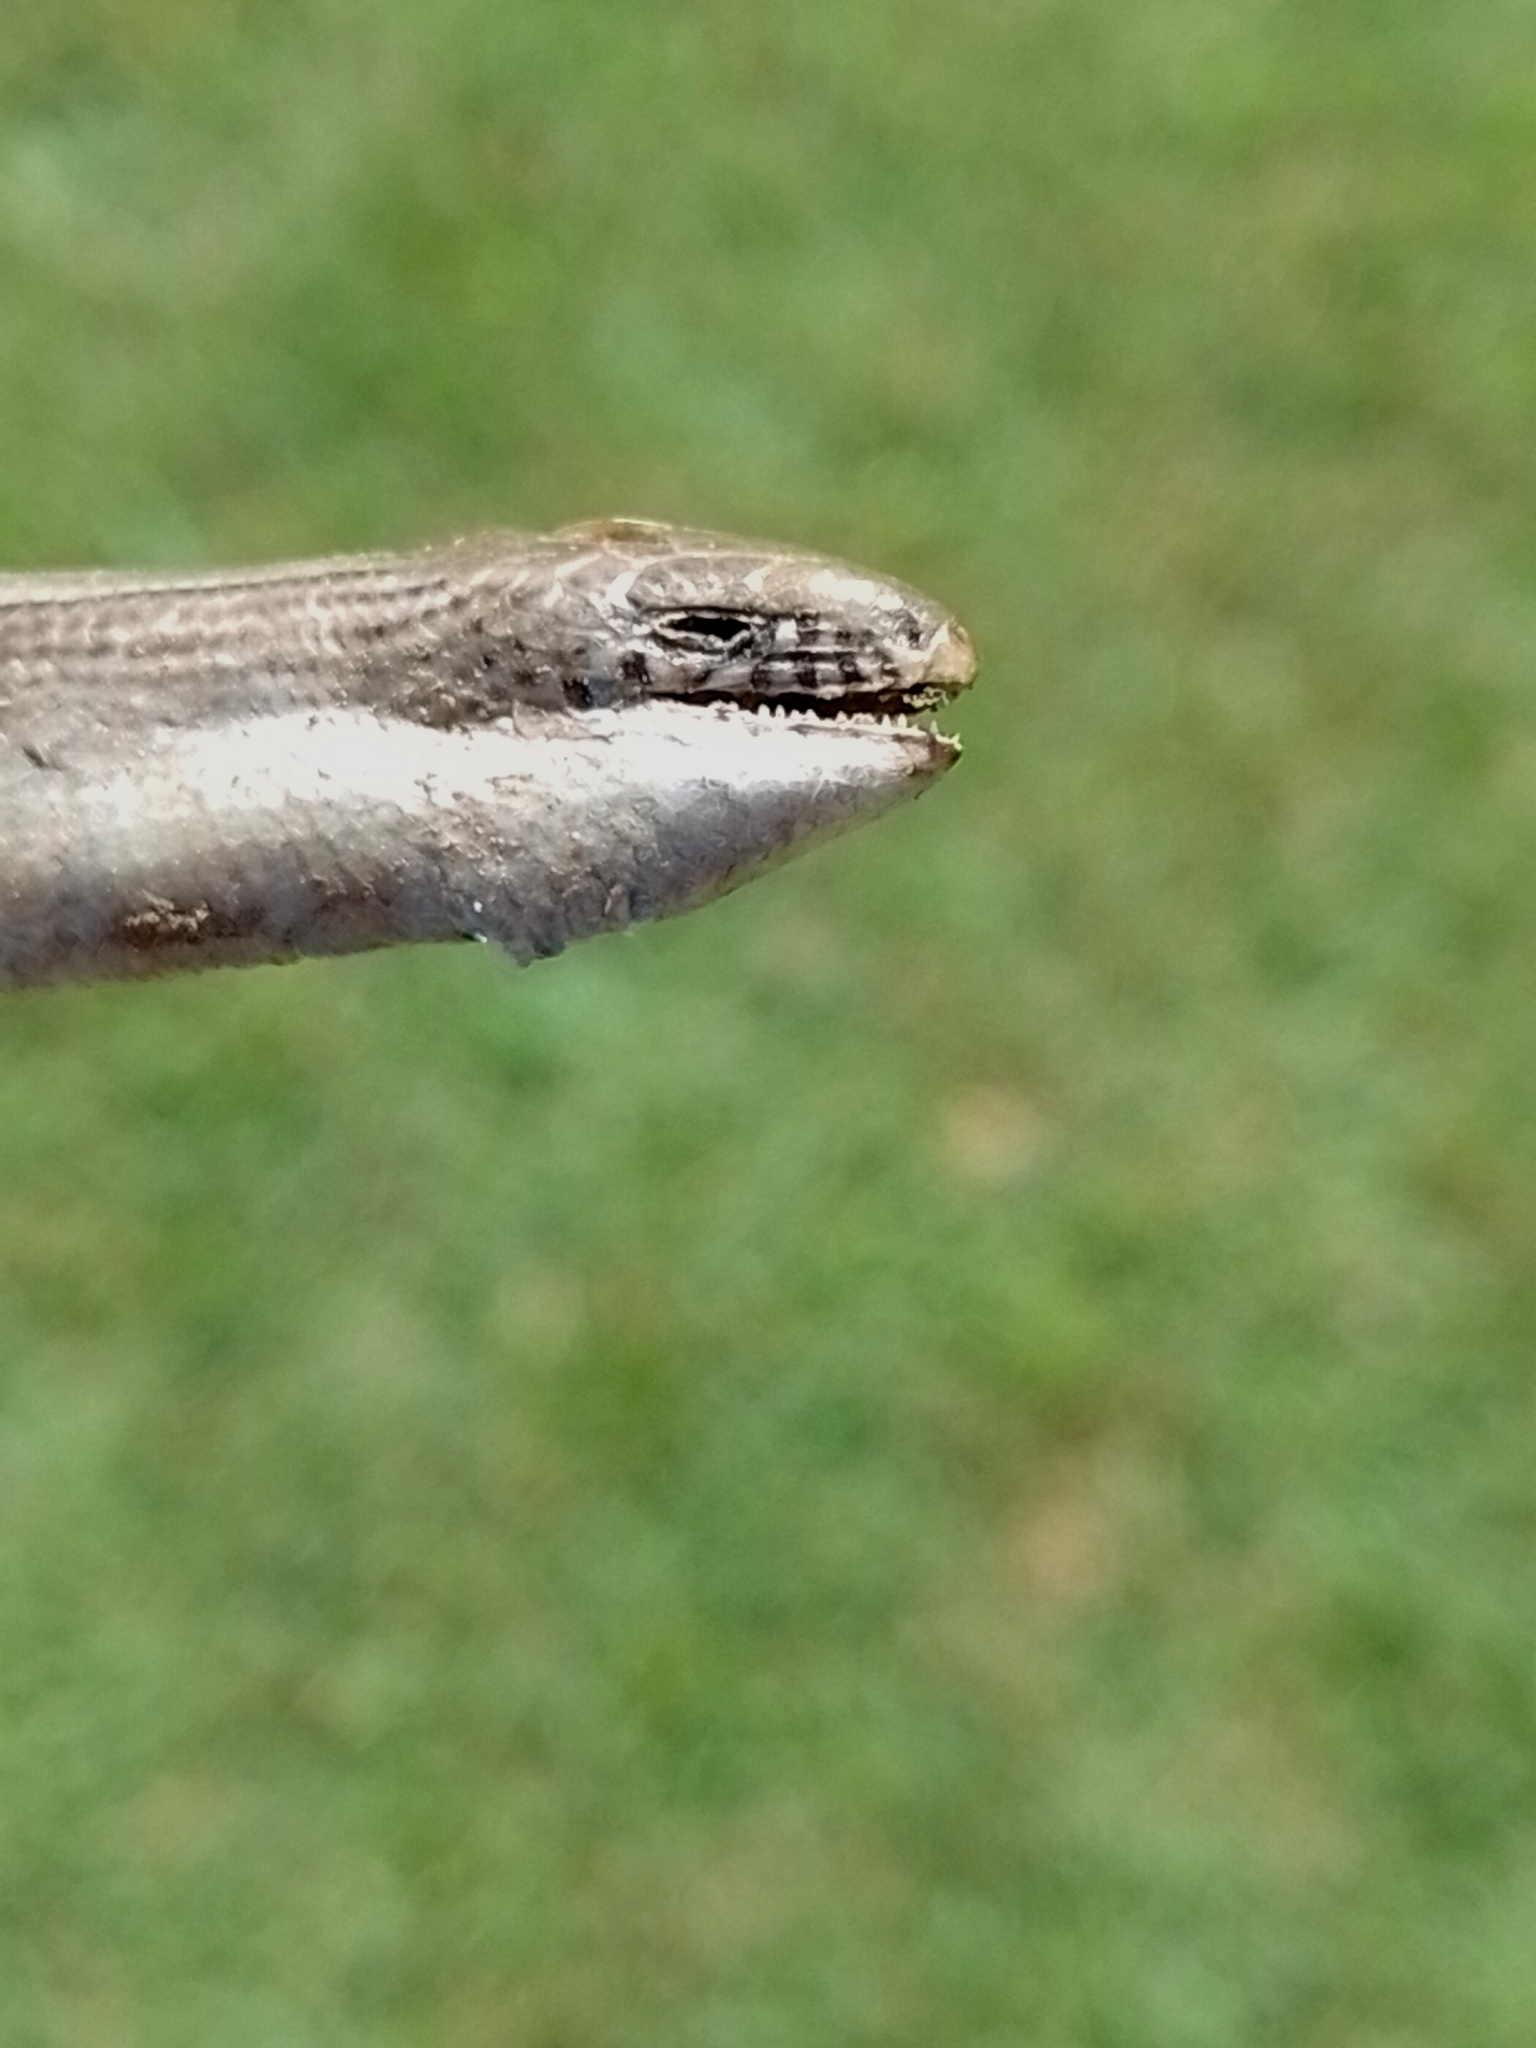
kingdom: Animalia
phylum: Chordata
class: Squamata
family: Diploglossidae
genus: Ophiodes
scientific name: Ophiodes intermedius
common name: Middle worm lizard
